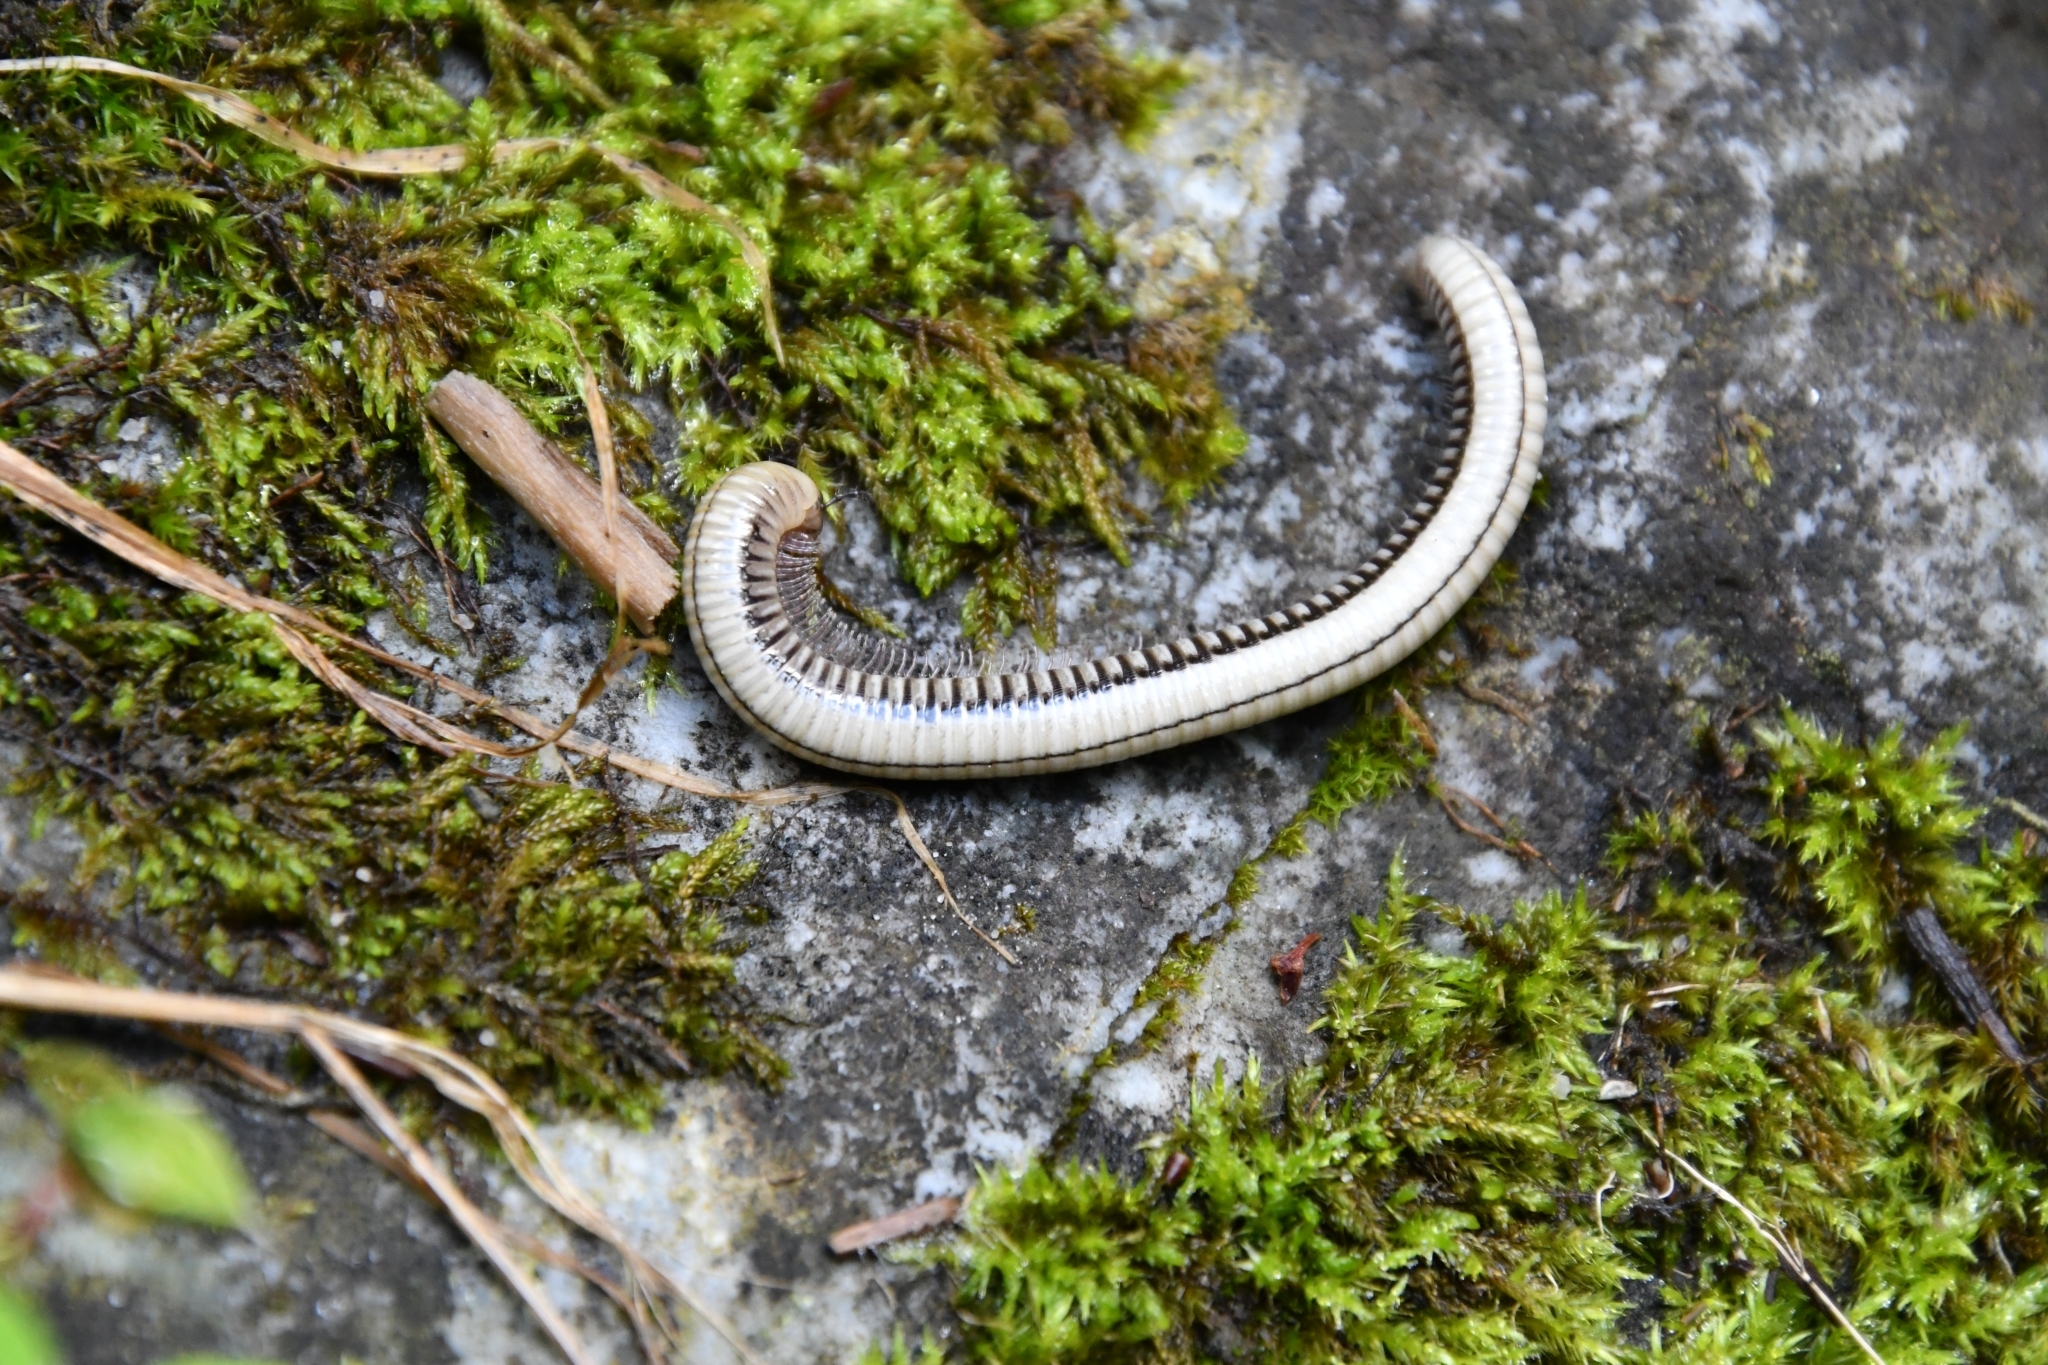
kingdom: Animalia
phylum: Arthropoda
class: Diplopoda
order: Julida
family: Julidae
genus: Pachyiulus
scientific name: Pachyiulus krivolutskyi
